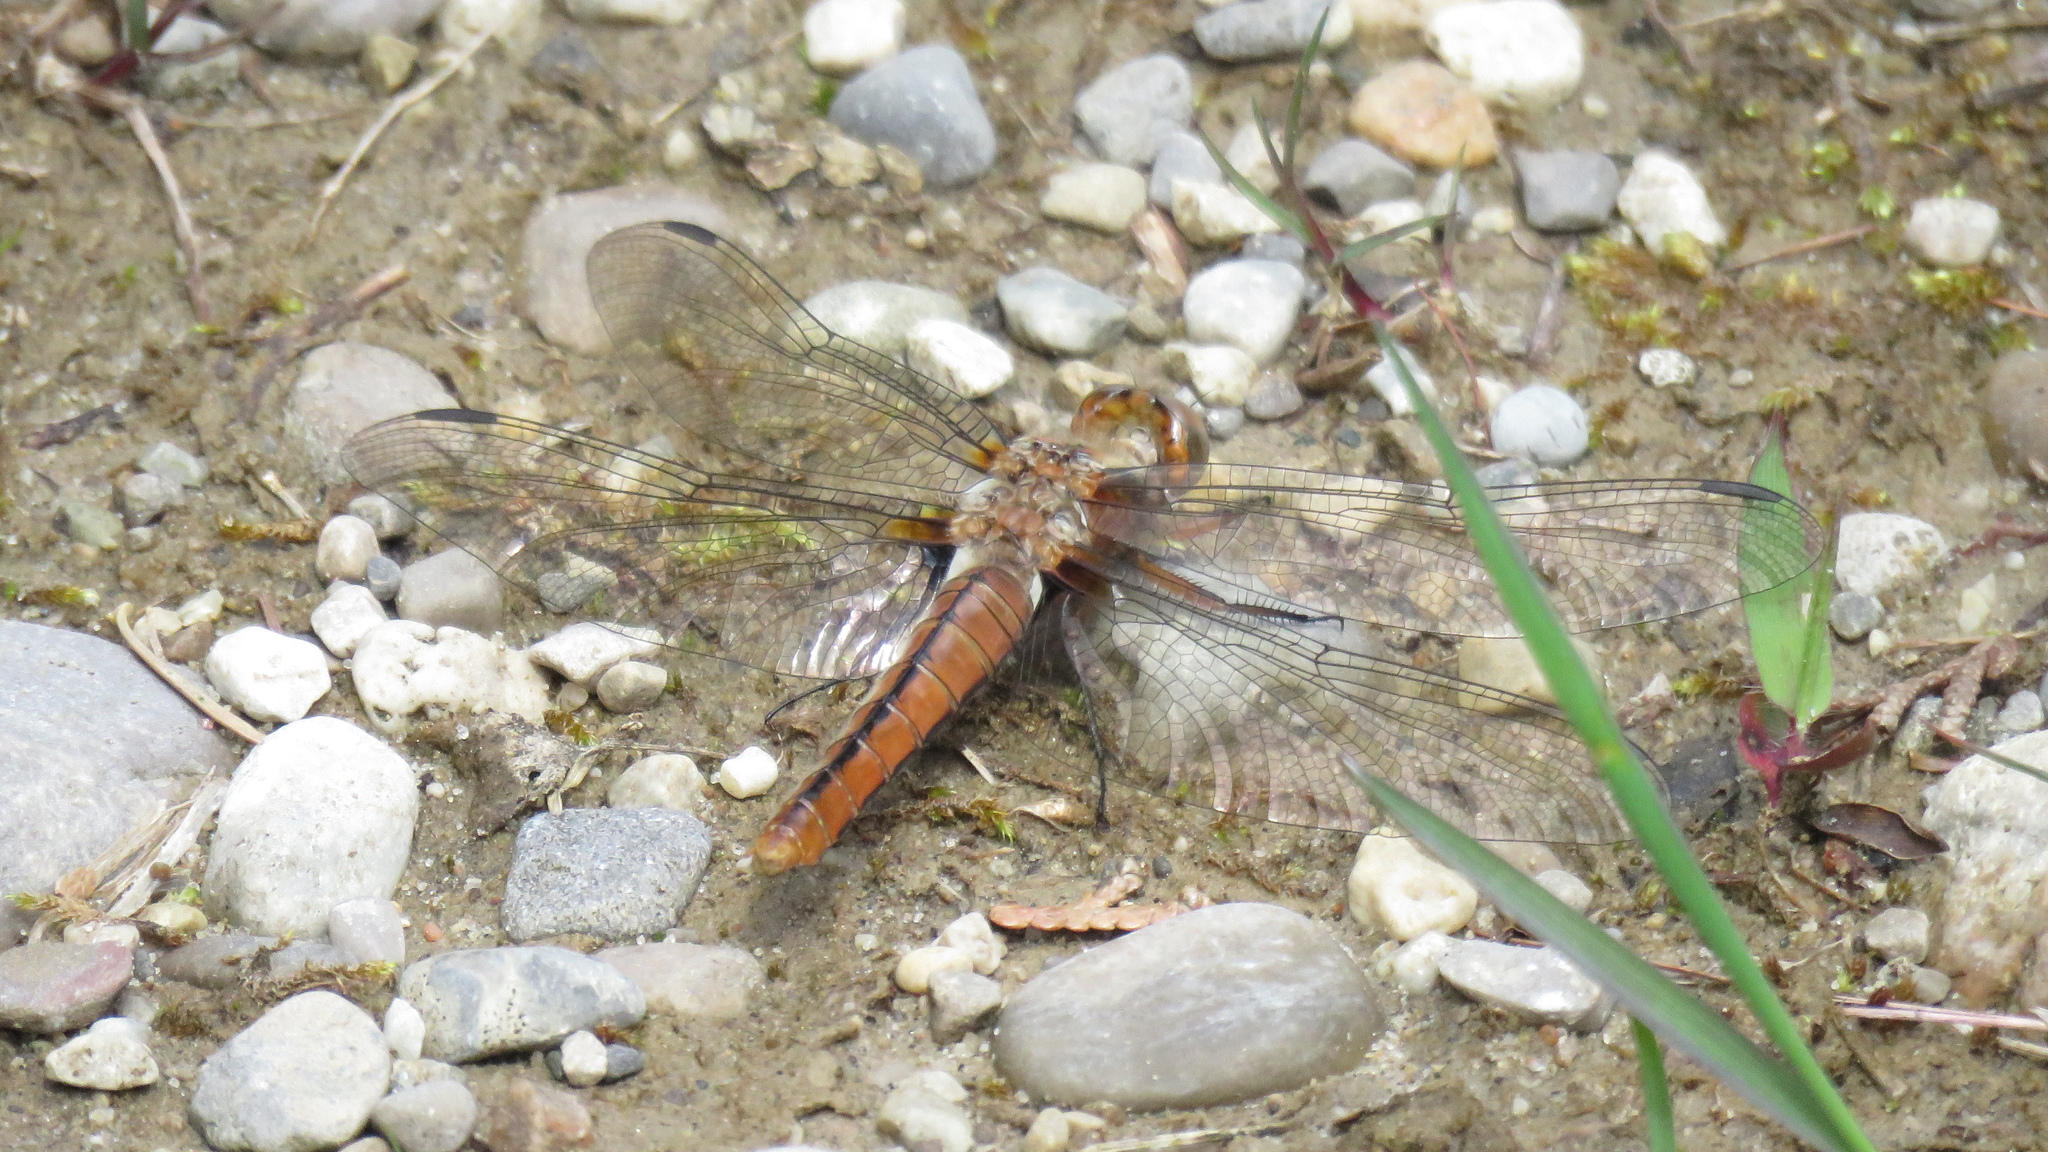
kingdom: Animalia
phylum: Arthropoda
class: Insecta
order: Odonata
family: Libellulidae
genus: Ladona
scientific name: Ladona julia
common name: Chalk-fronted corporal
